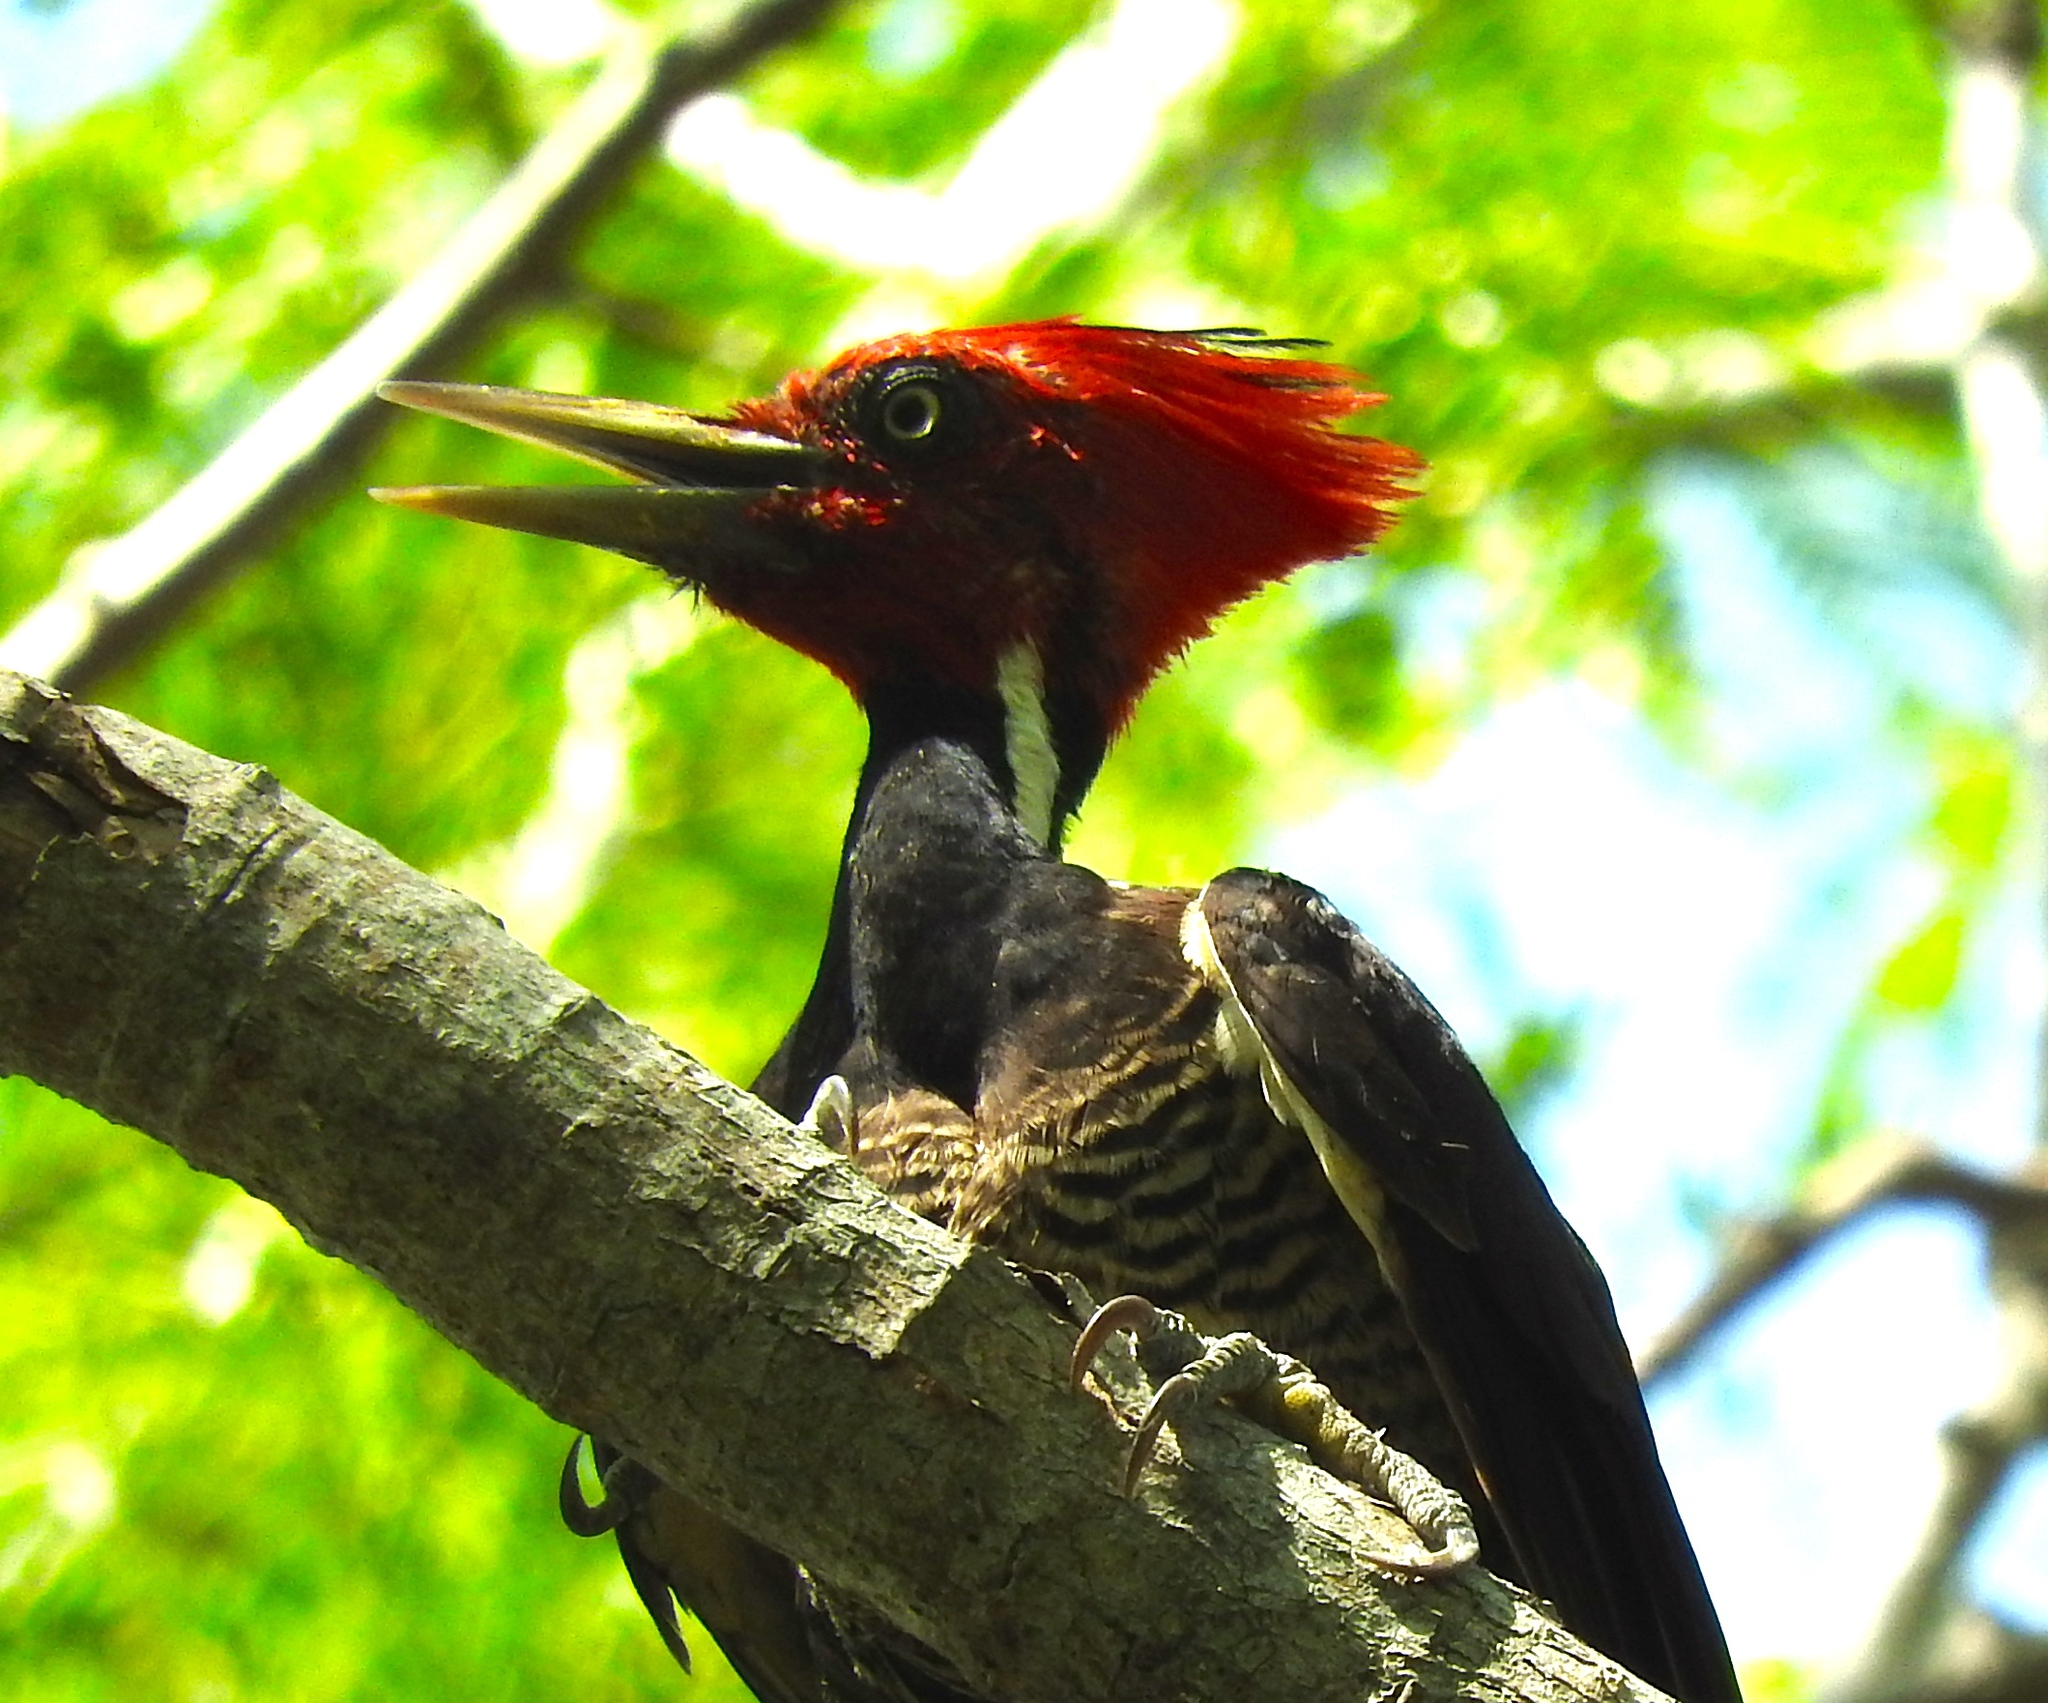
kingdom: Animalia
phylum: Chordata
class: Aves
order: Piciformes
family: Picidae
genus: Campephilus
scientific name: Campephilus guatemalensis
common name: Pale-billed woodpecker
